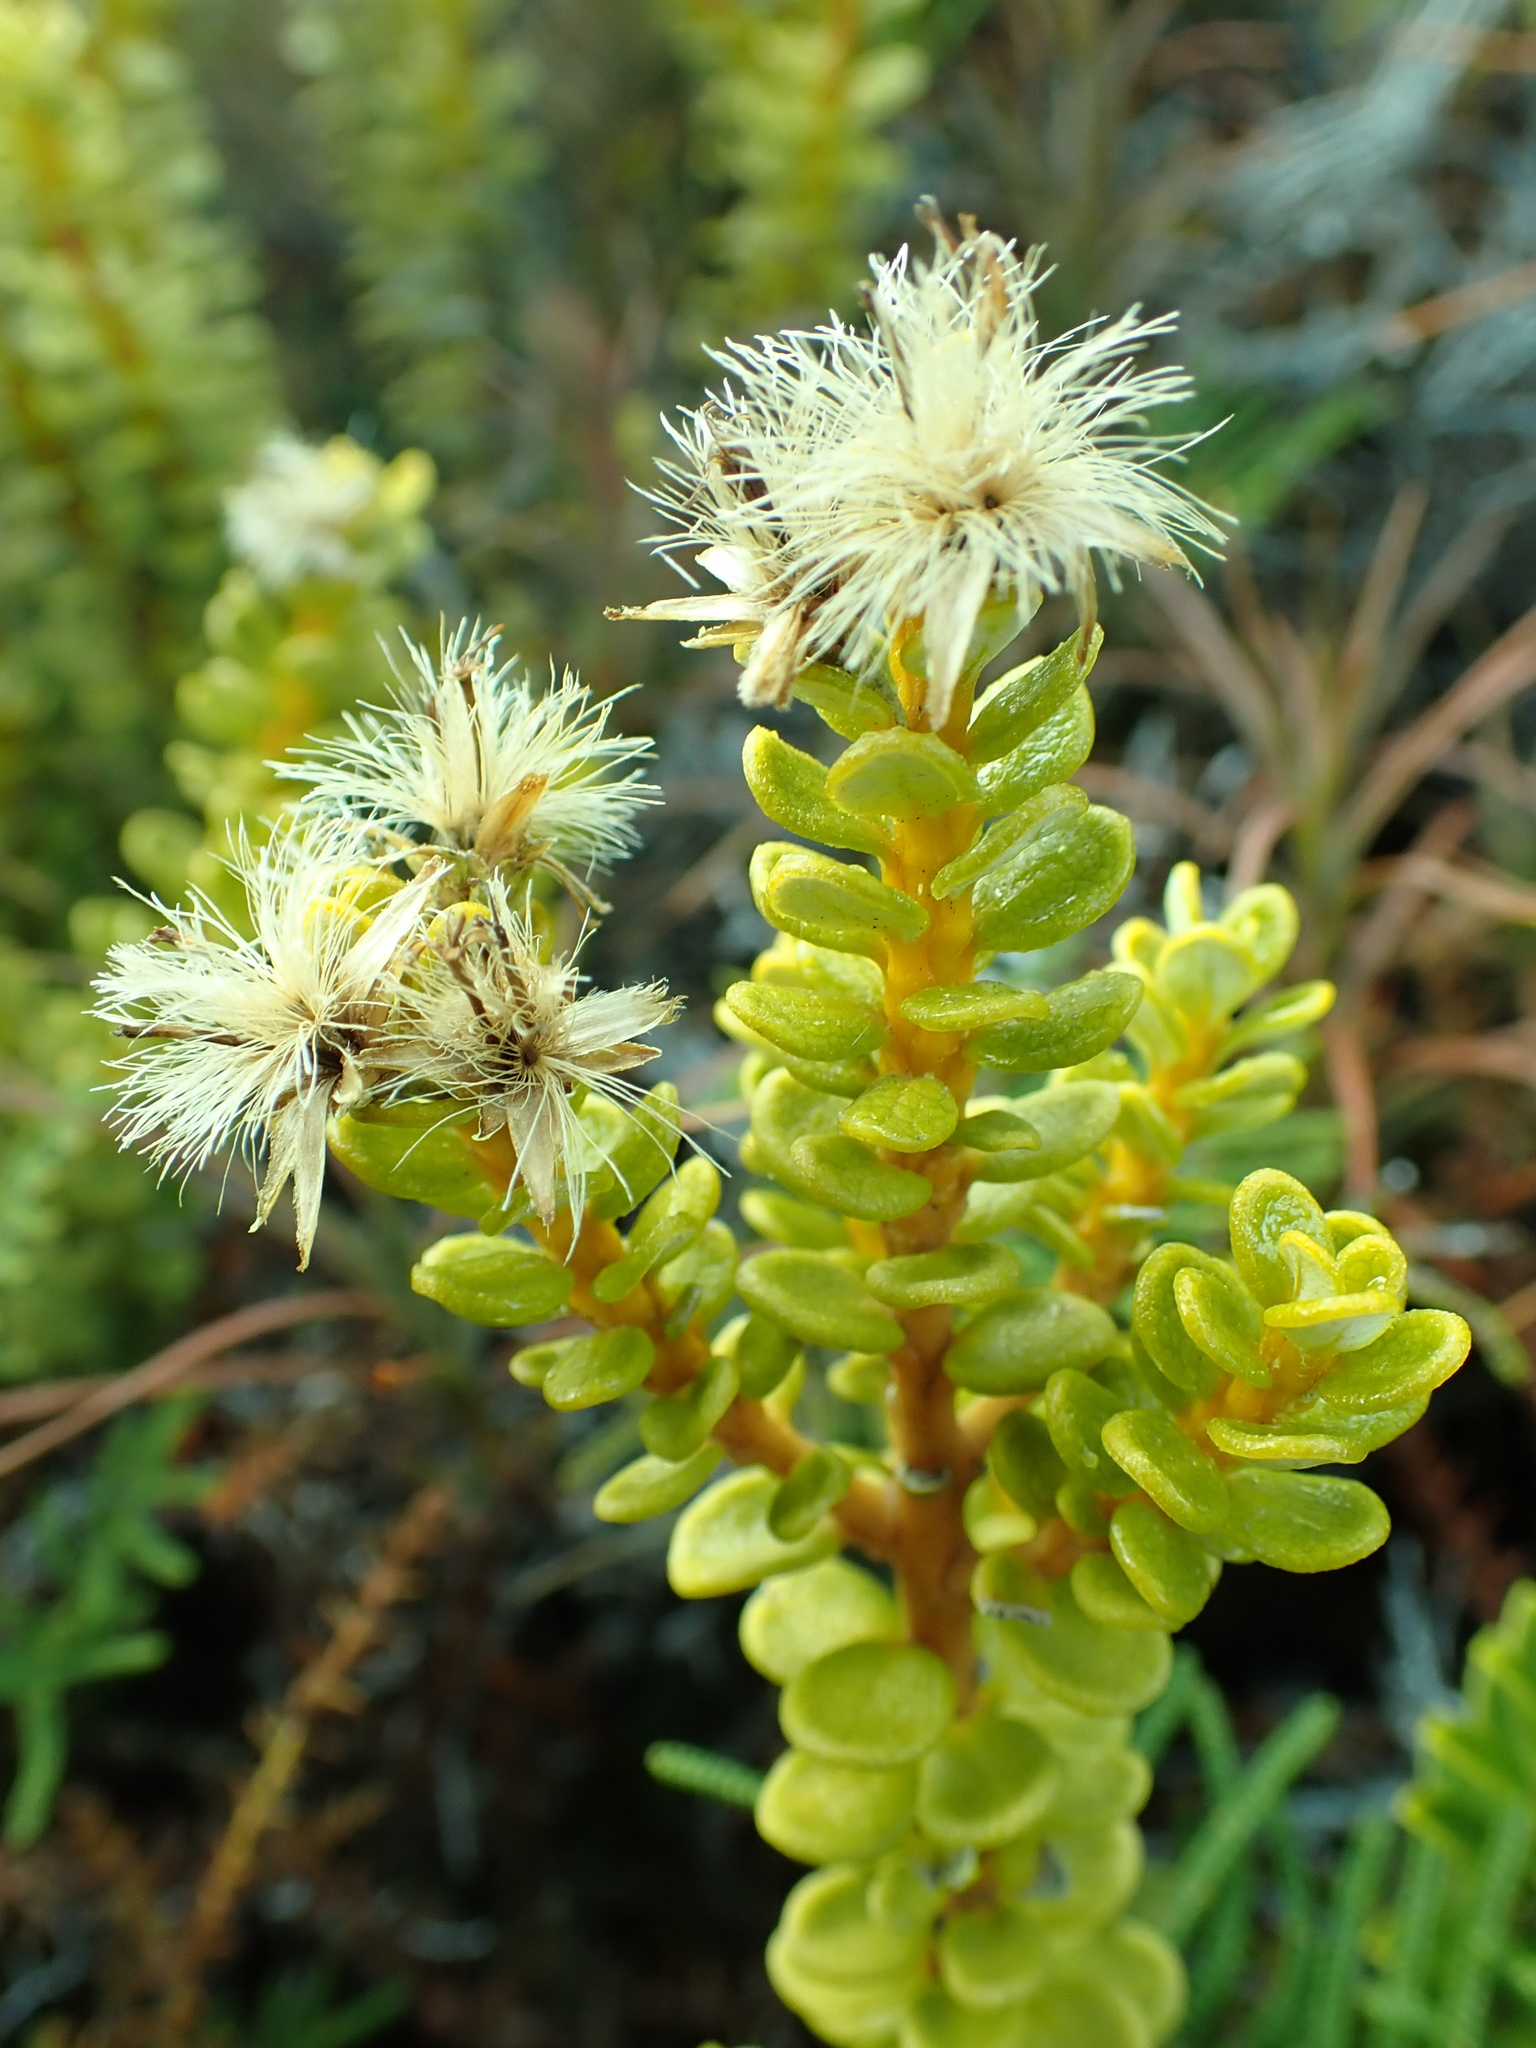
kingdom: Plantae
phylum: Tracheophyta
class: Magnoliopsida
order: Asterales
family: Asteraceae
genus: Olearia
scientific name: Olearia nummularifolia
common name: Sticky daisybush
